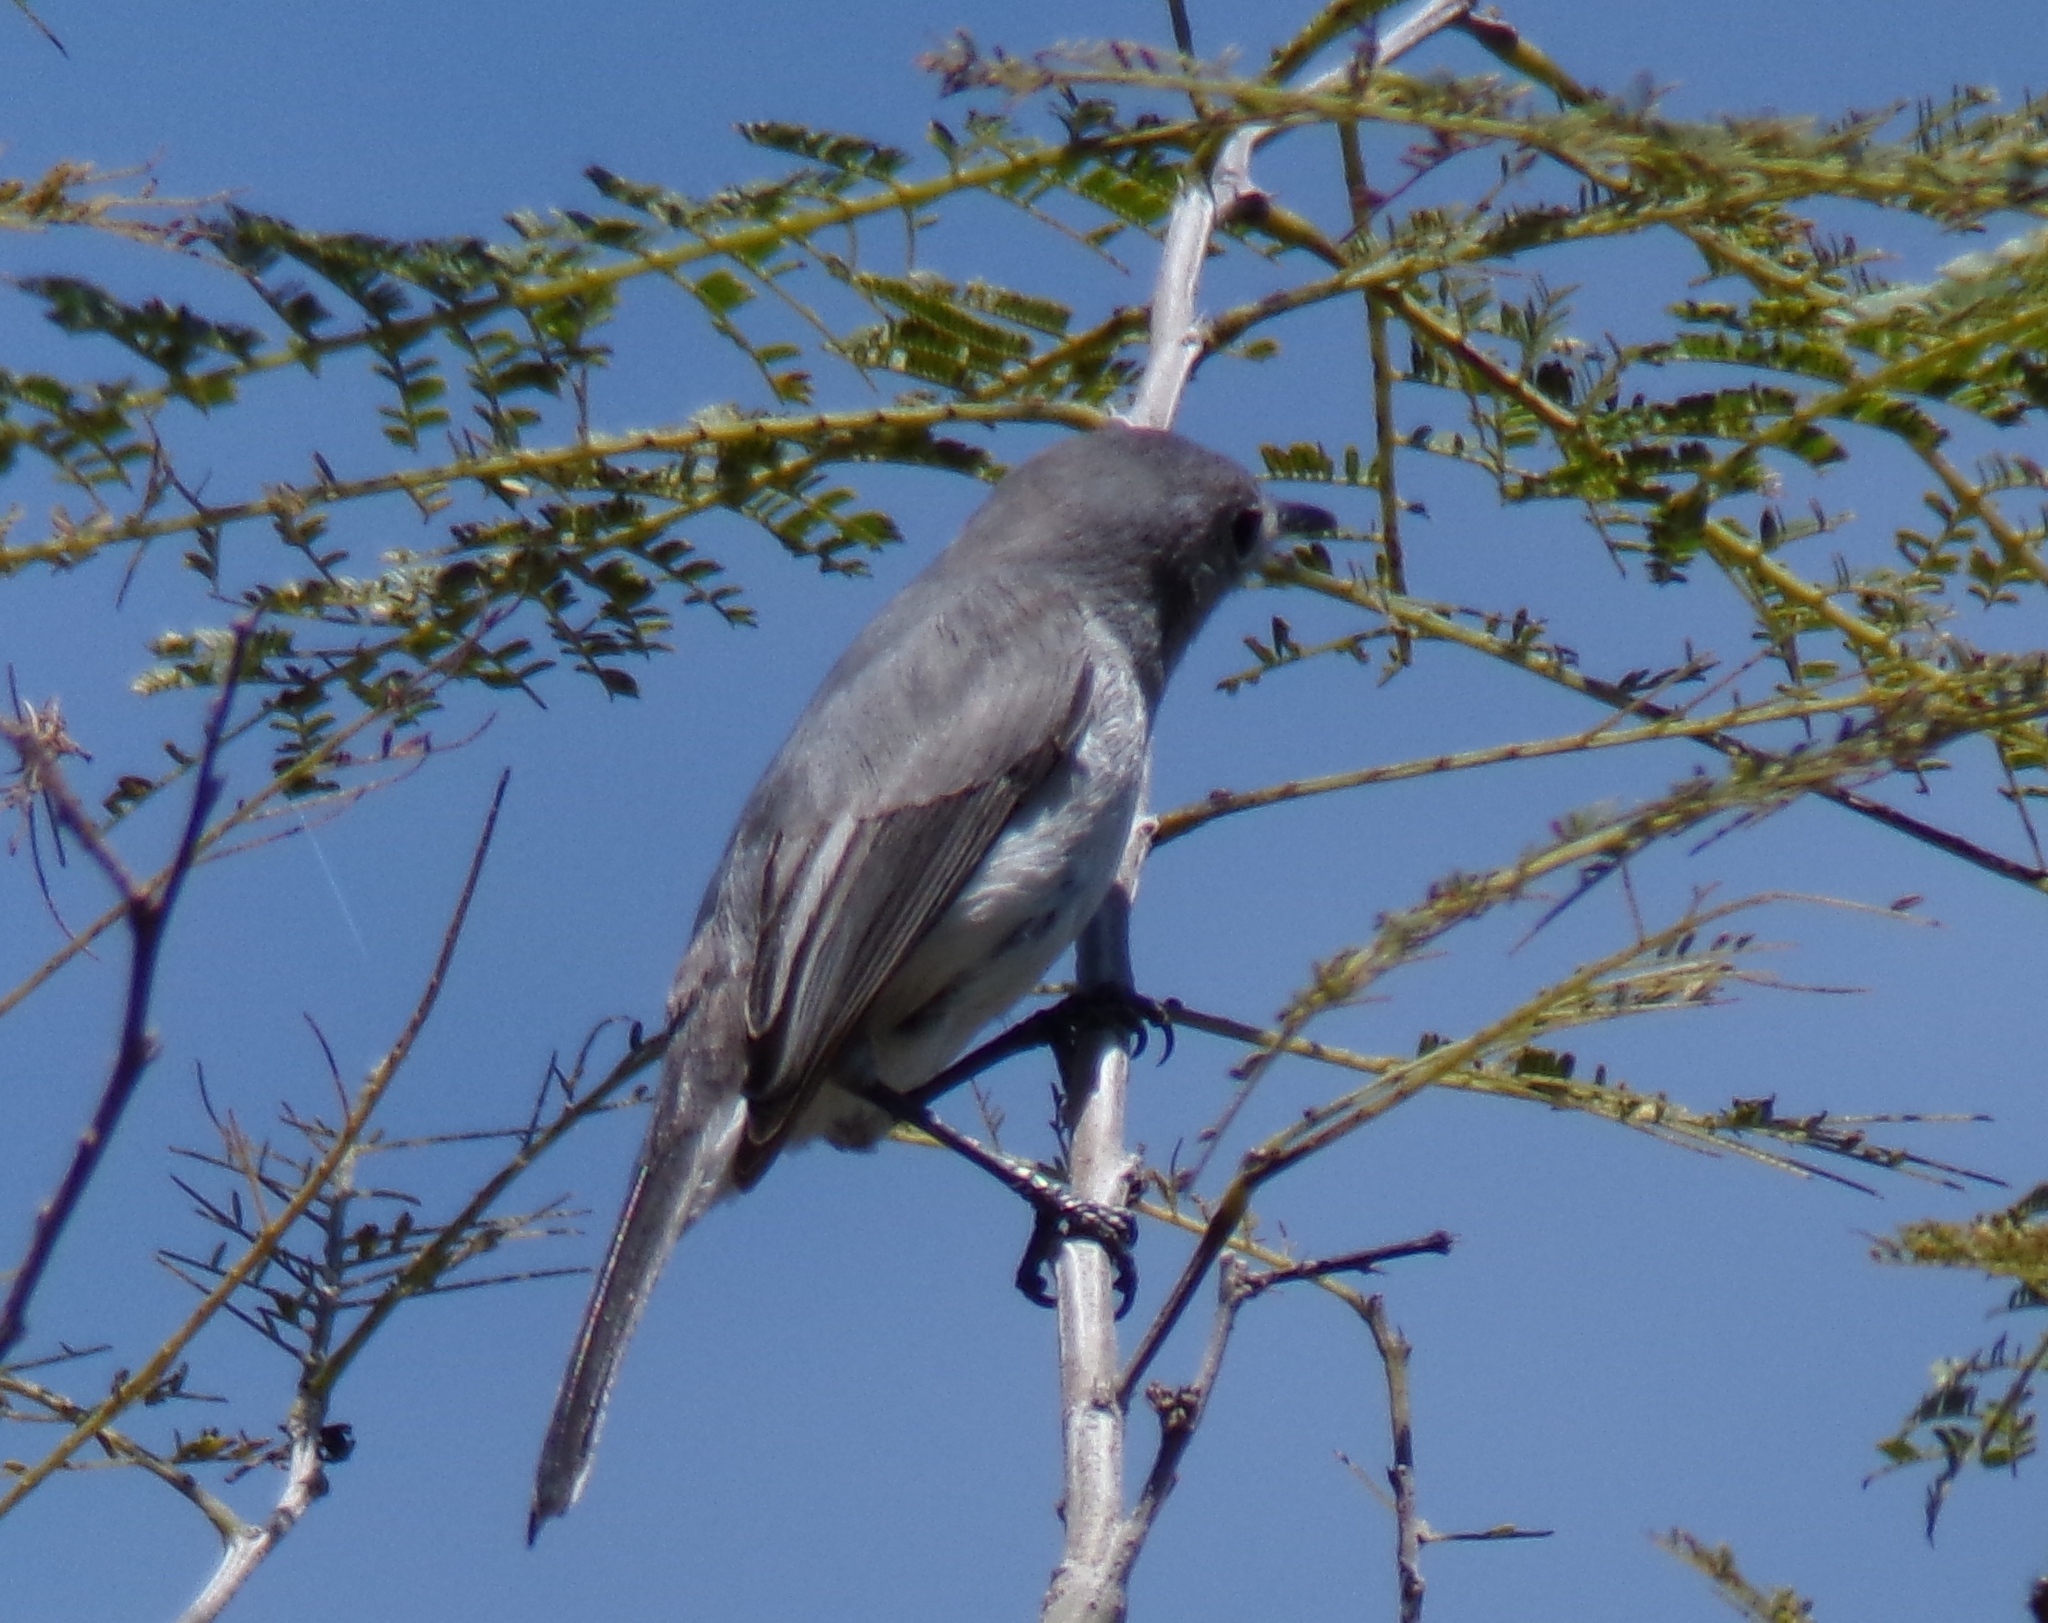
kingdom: Animalia
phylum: Chordata
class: Aves
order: Passeriformes
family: Polioptilidae
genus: Polioptila
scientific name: Polioptila caerulea
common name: Blue-gray gnatcatcher
